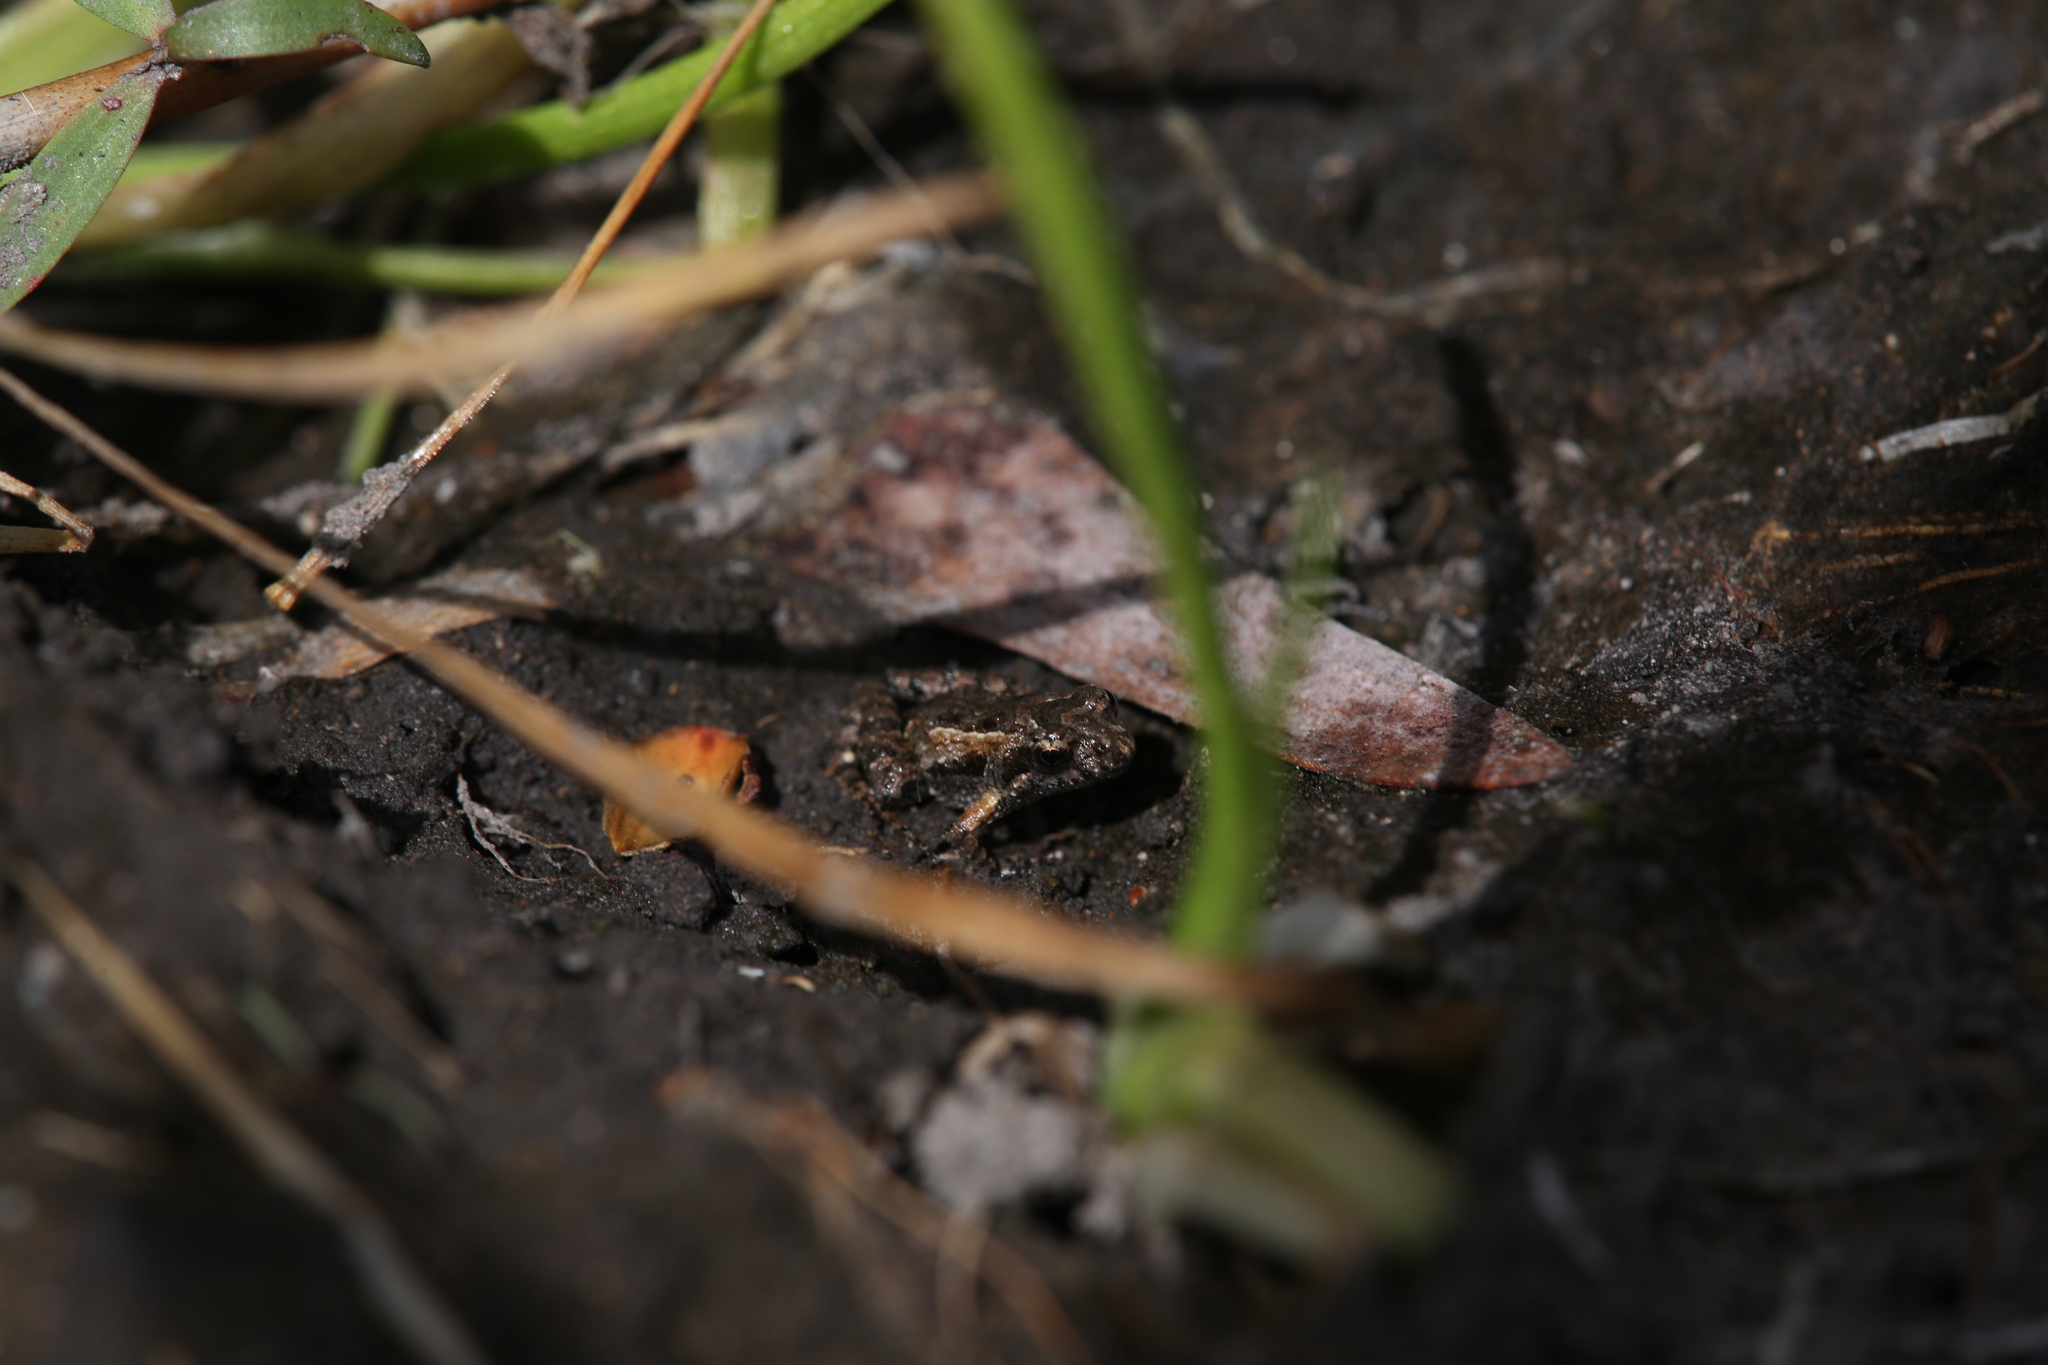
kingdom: Animalia
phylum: Chordata
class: Amphibia
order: Anura
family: Myobatrachidae
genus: Crinia
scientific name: Crinia remota
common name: Remote froglet
